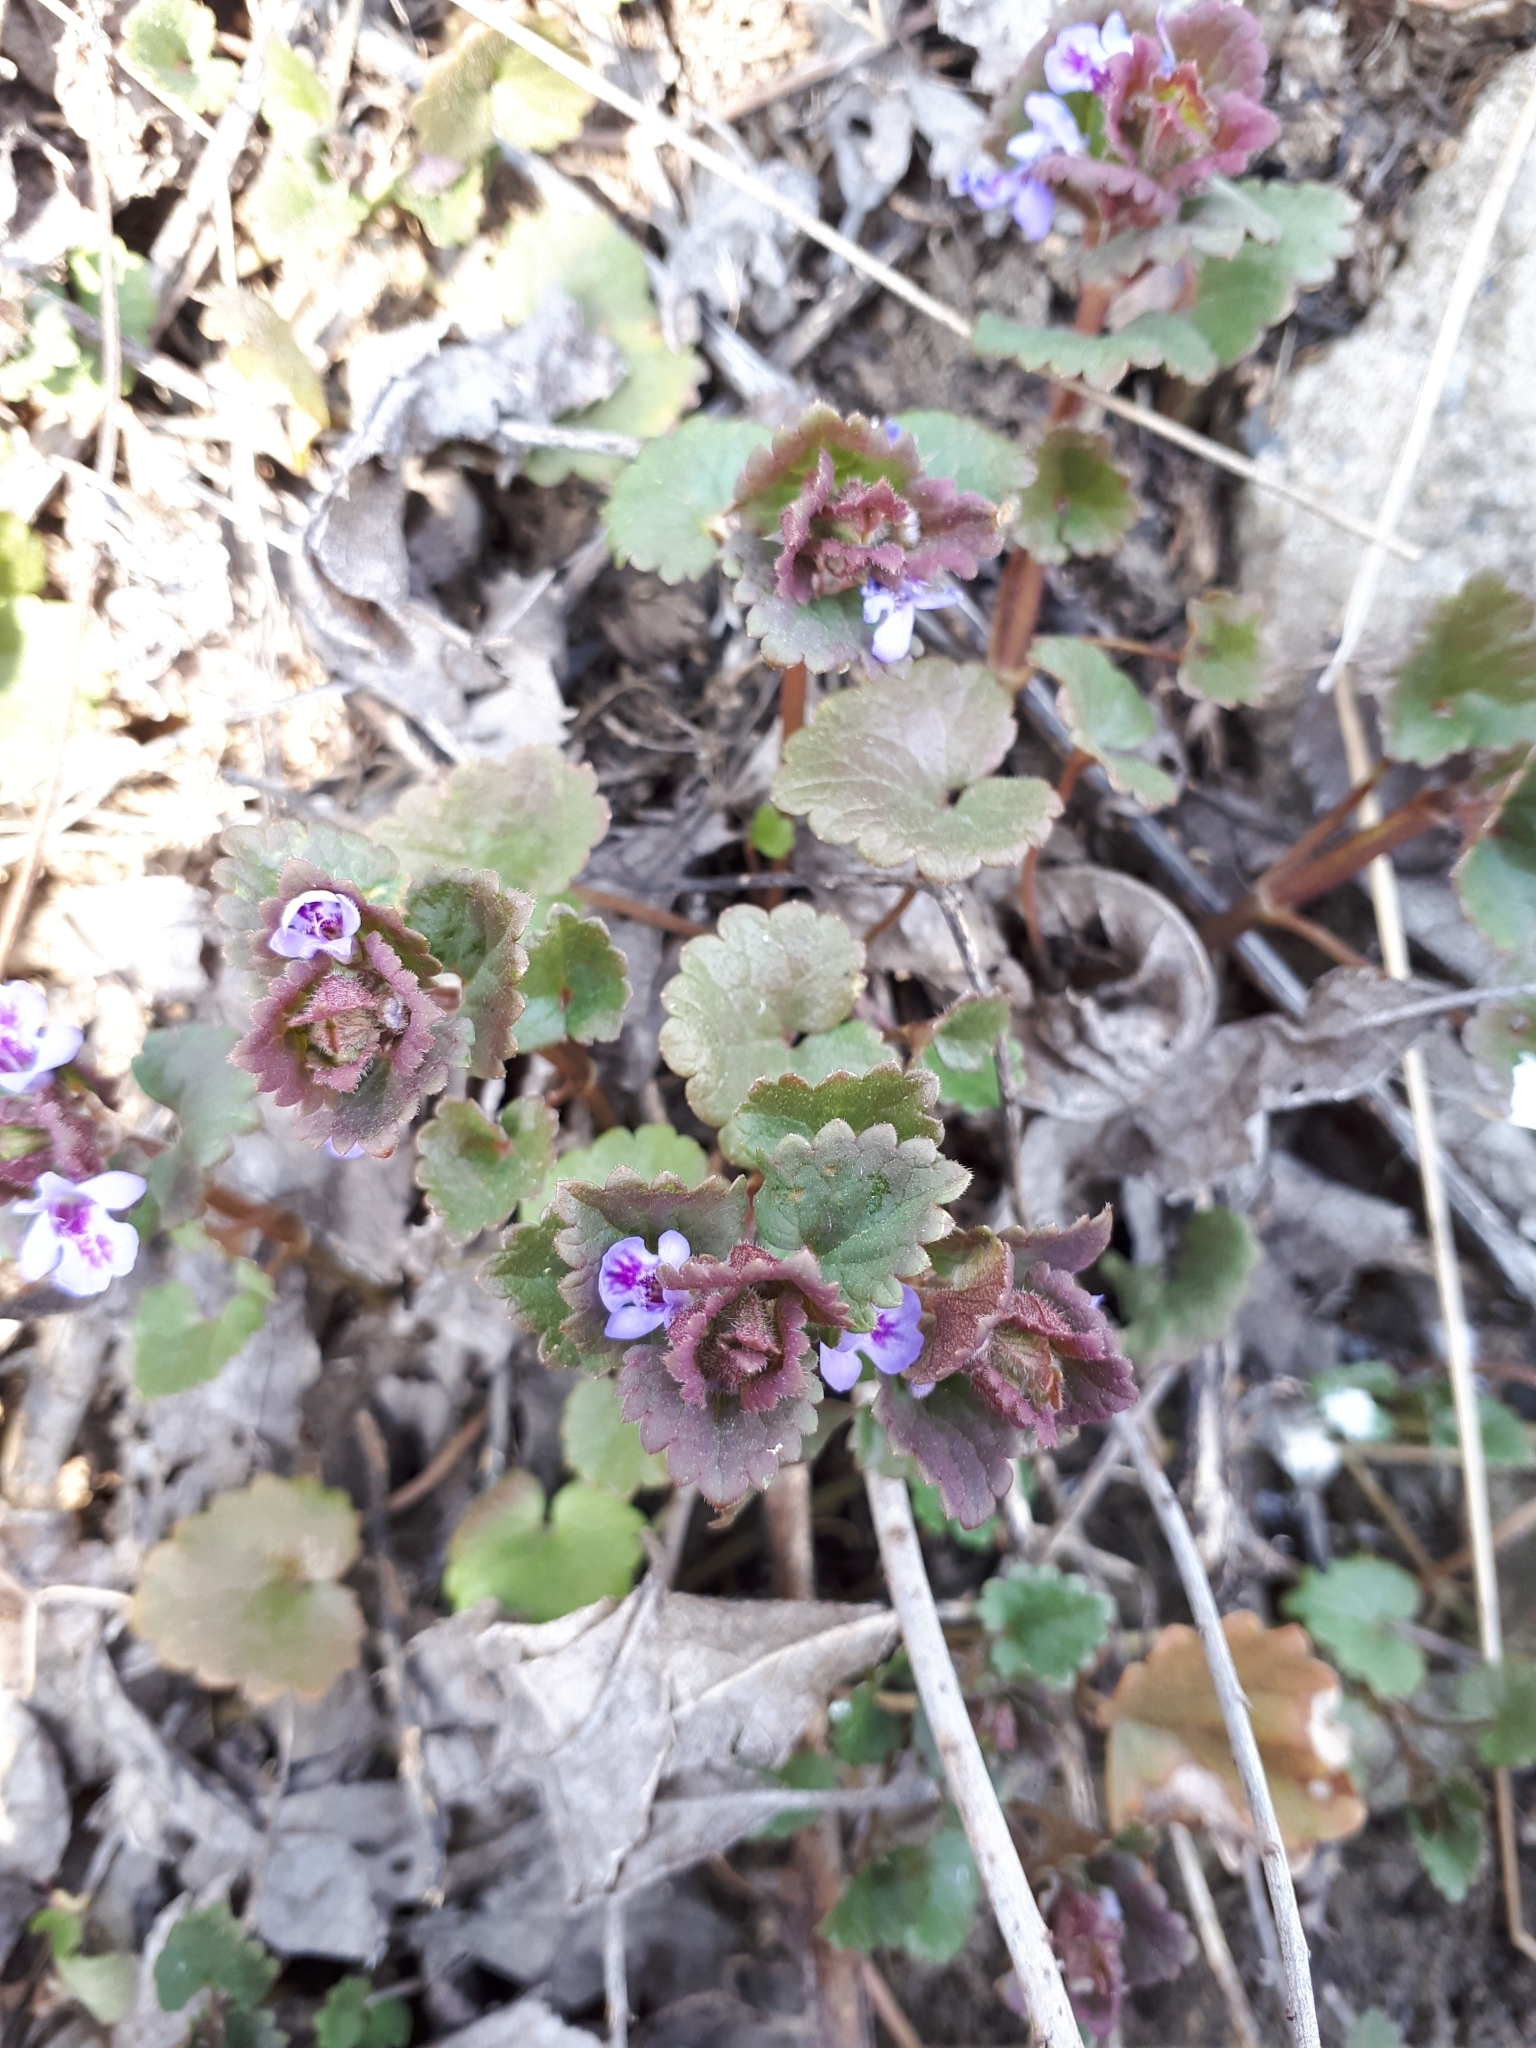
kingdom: Plantae
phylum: Tracheophyta
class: Magnoliopsida
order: Lamiales
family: Lamiaceae
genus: Glechoma
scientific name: Glechoma hederacea
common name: Ground ivy
